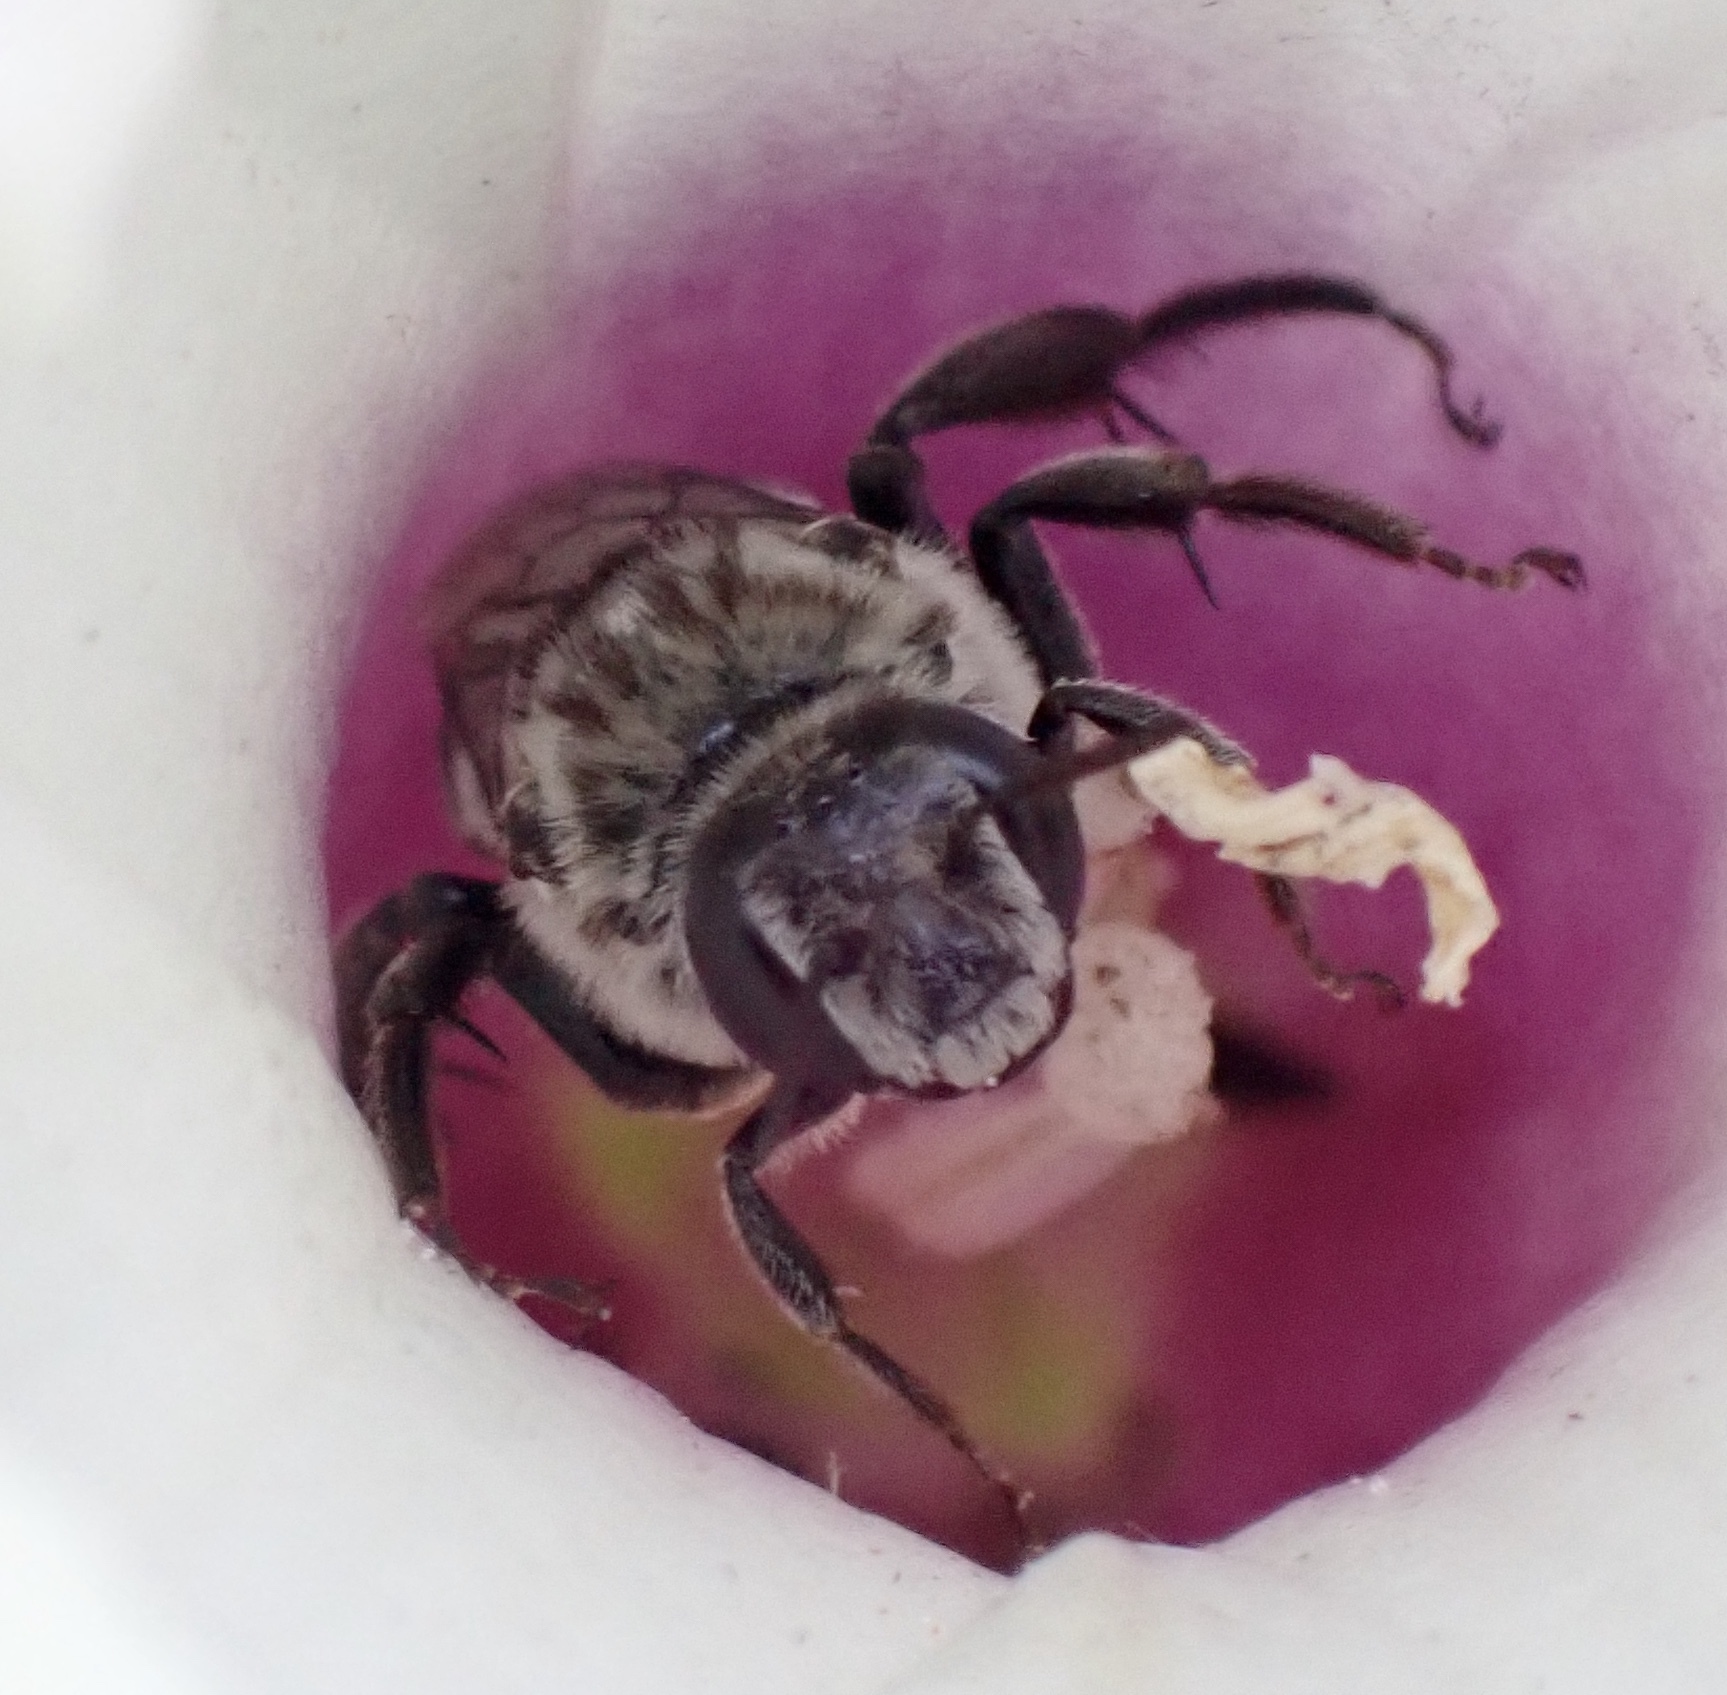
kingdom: Animalia
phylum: Arthropoda
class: Insecta
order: Hymenoptera
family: Apidae
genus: Melitoma
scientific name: Melitoma taurea
